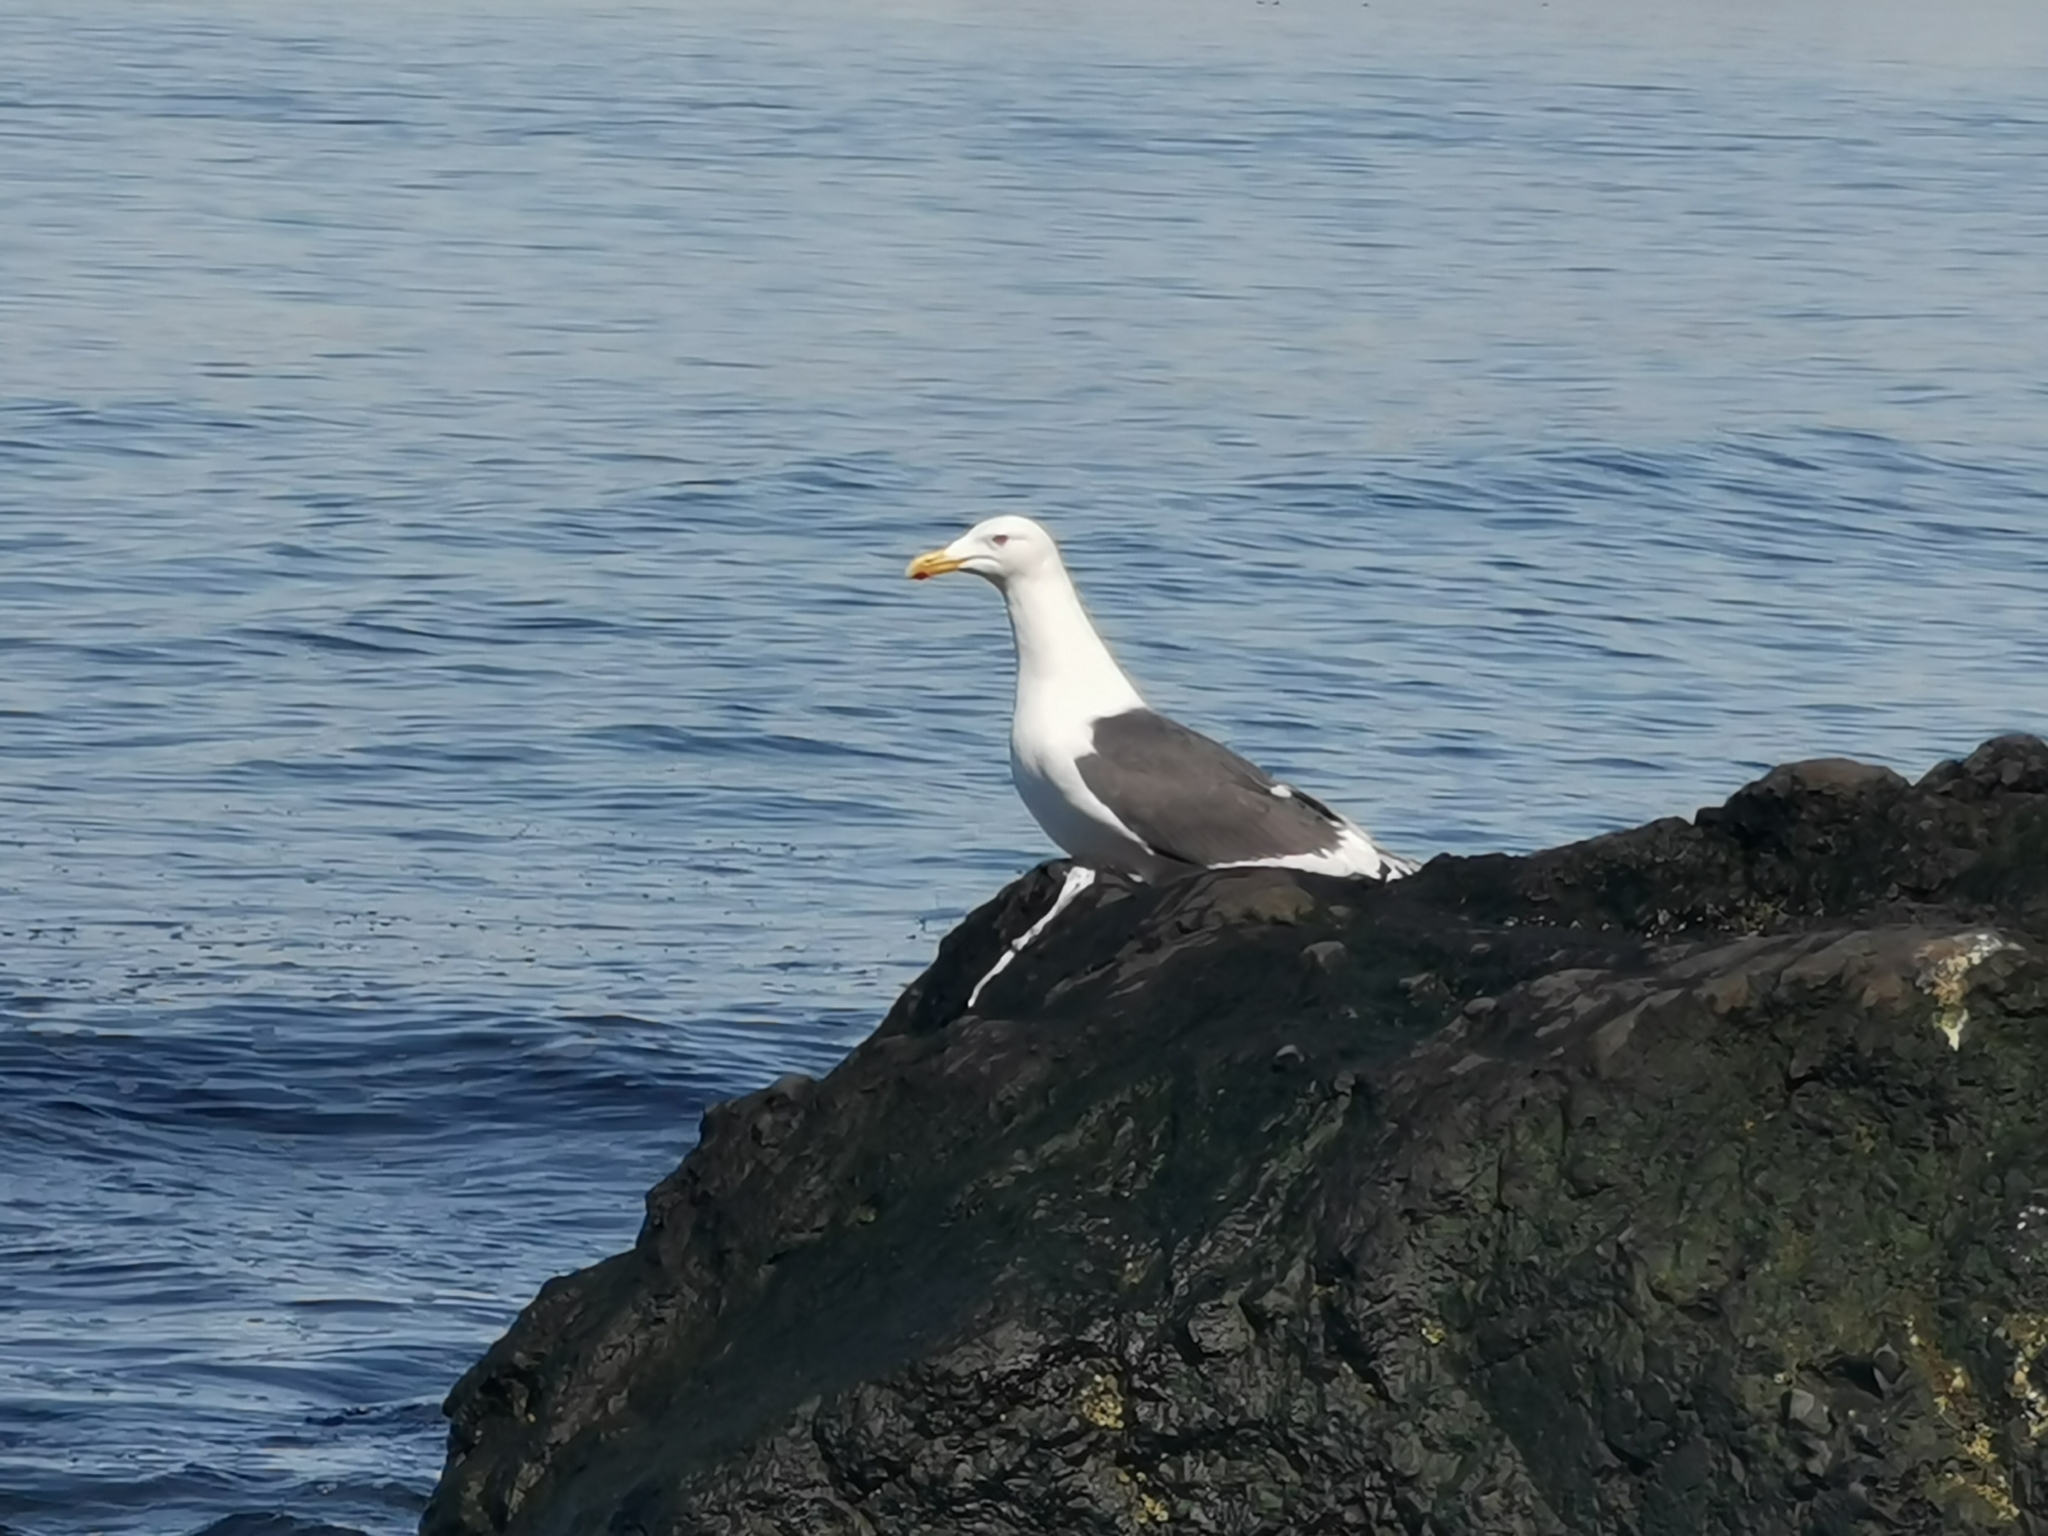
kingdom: Animalia
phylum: Chordata
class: Aves
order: Charadriiformes
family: Laridae
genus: Larus
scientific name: Larus schistisagus
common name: Slaty-backed gull
